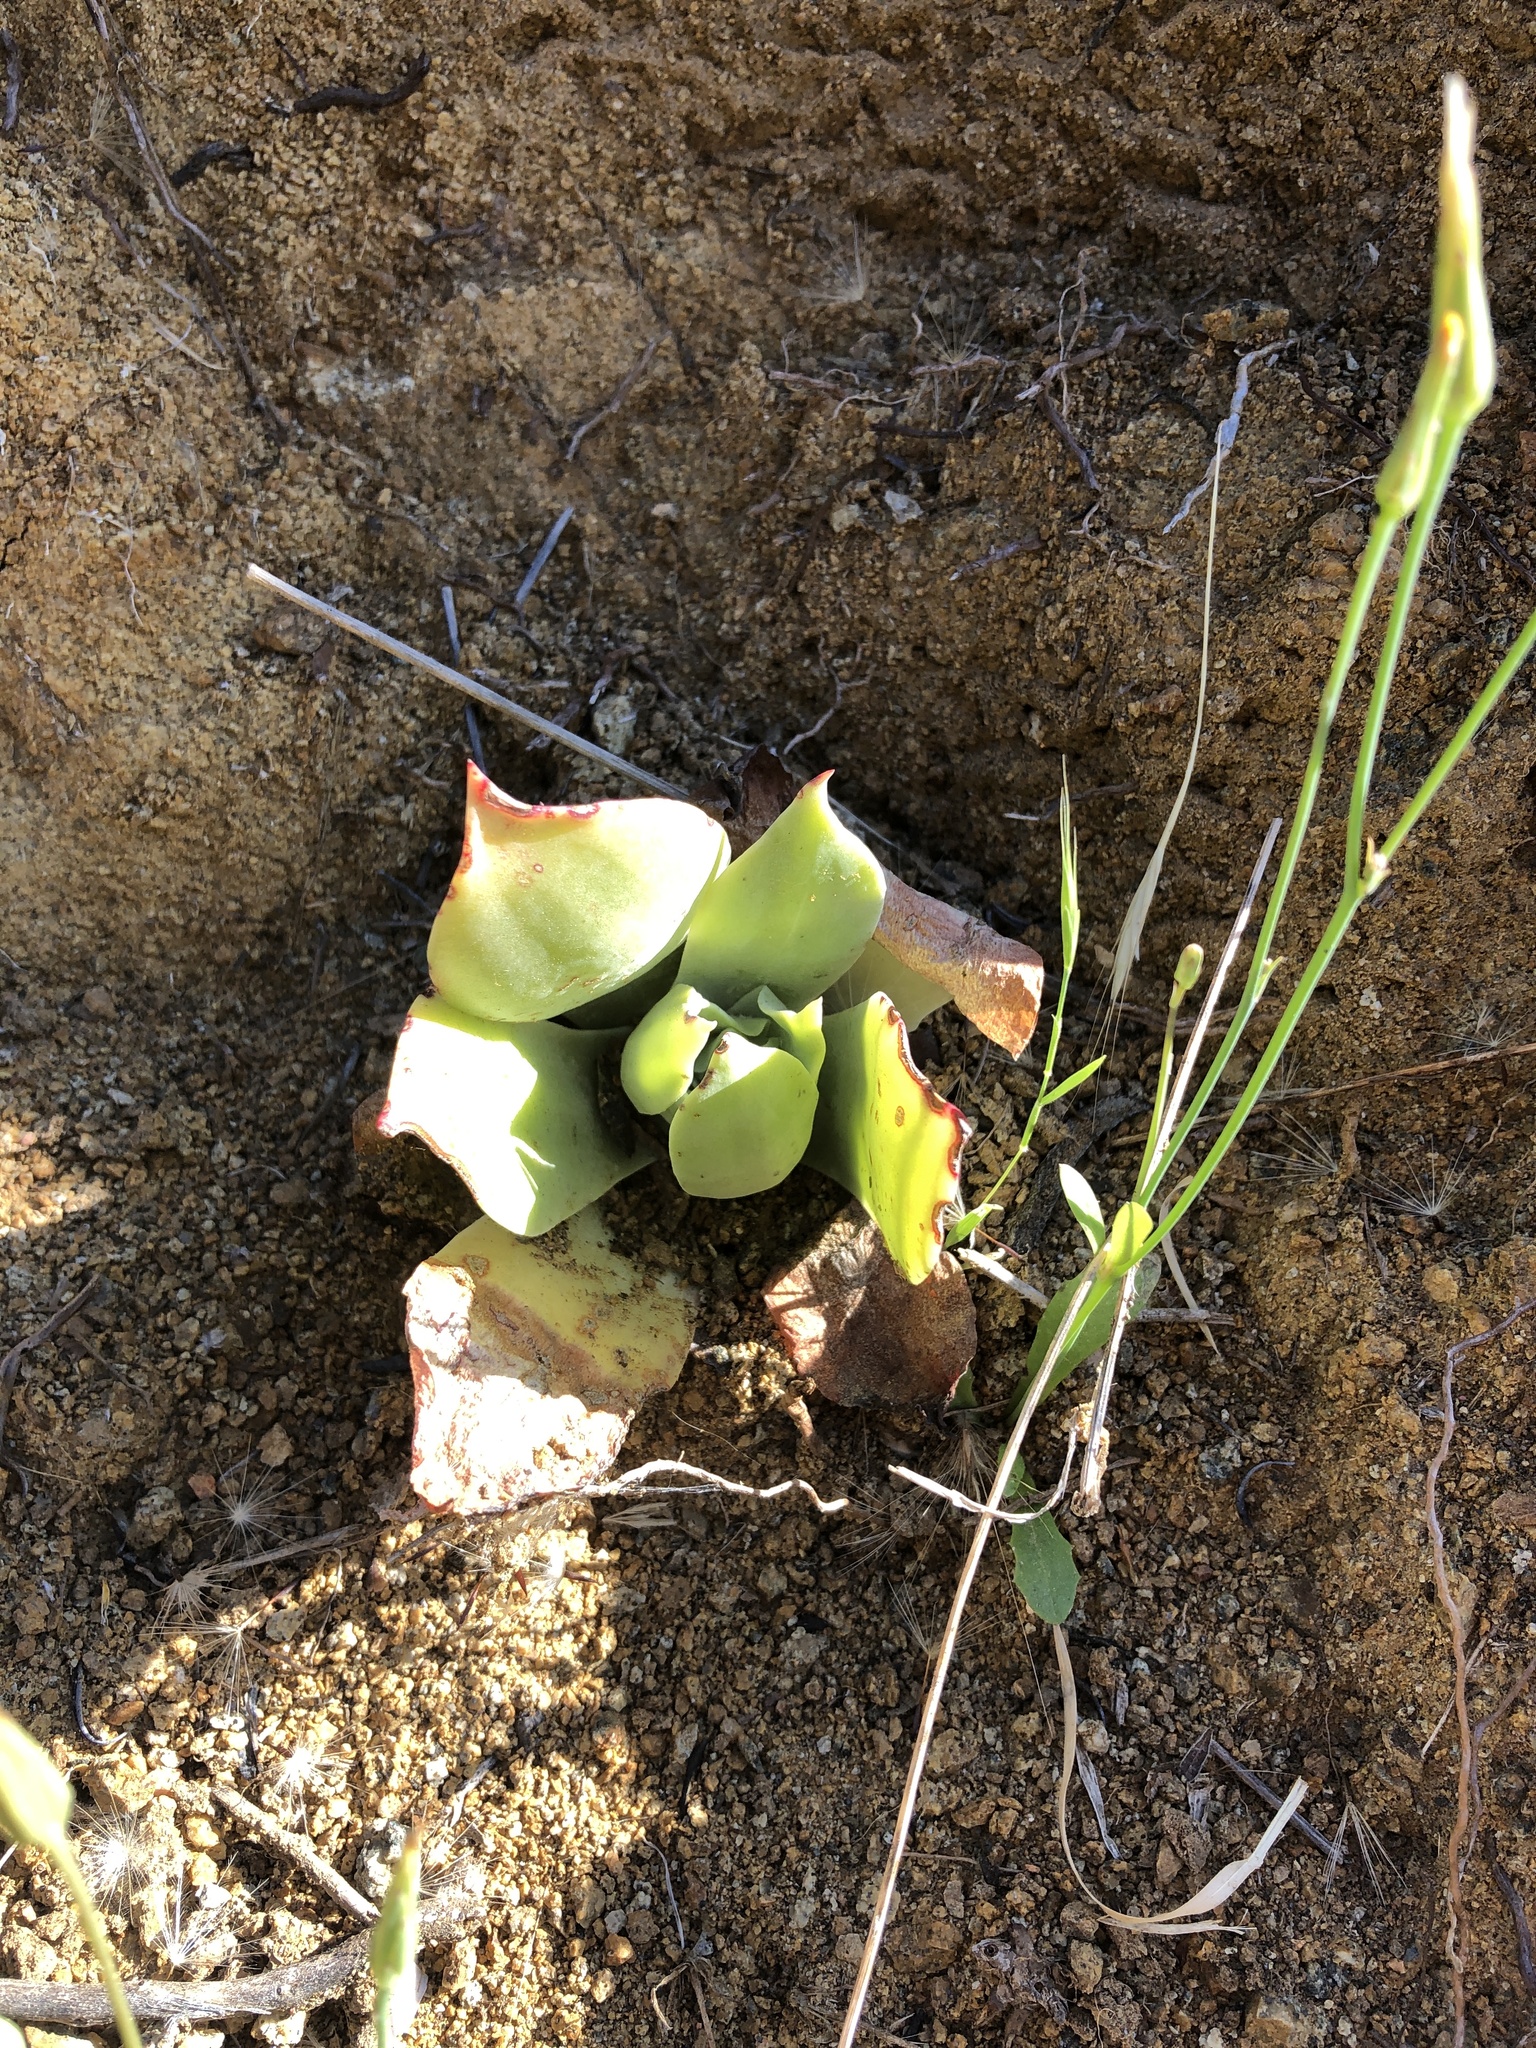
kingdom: Plantae
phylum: Tracheophyta
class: Magnoliopsida
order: Saxifragales
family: Crassulaceae
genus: Dudleya
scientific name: Dudleya pulverulenta
